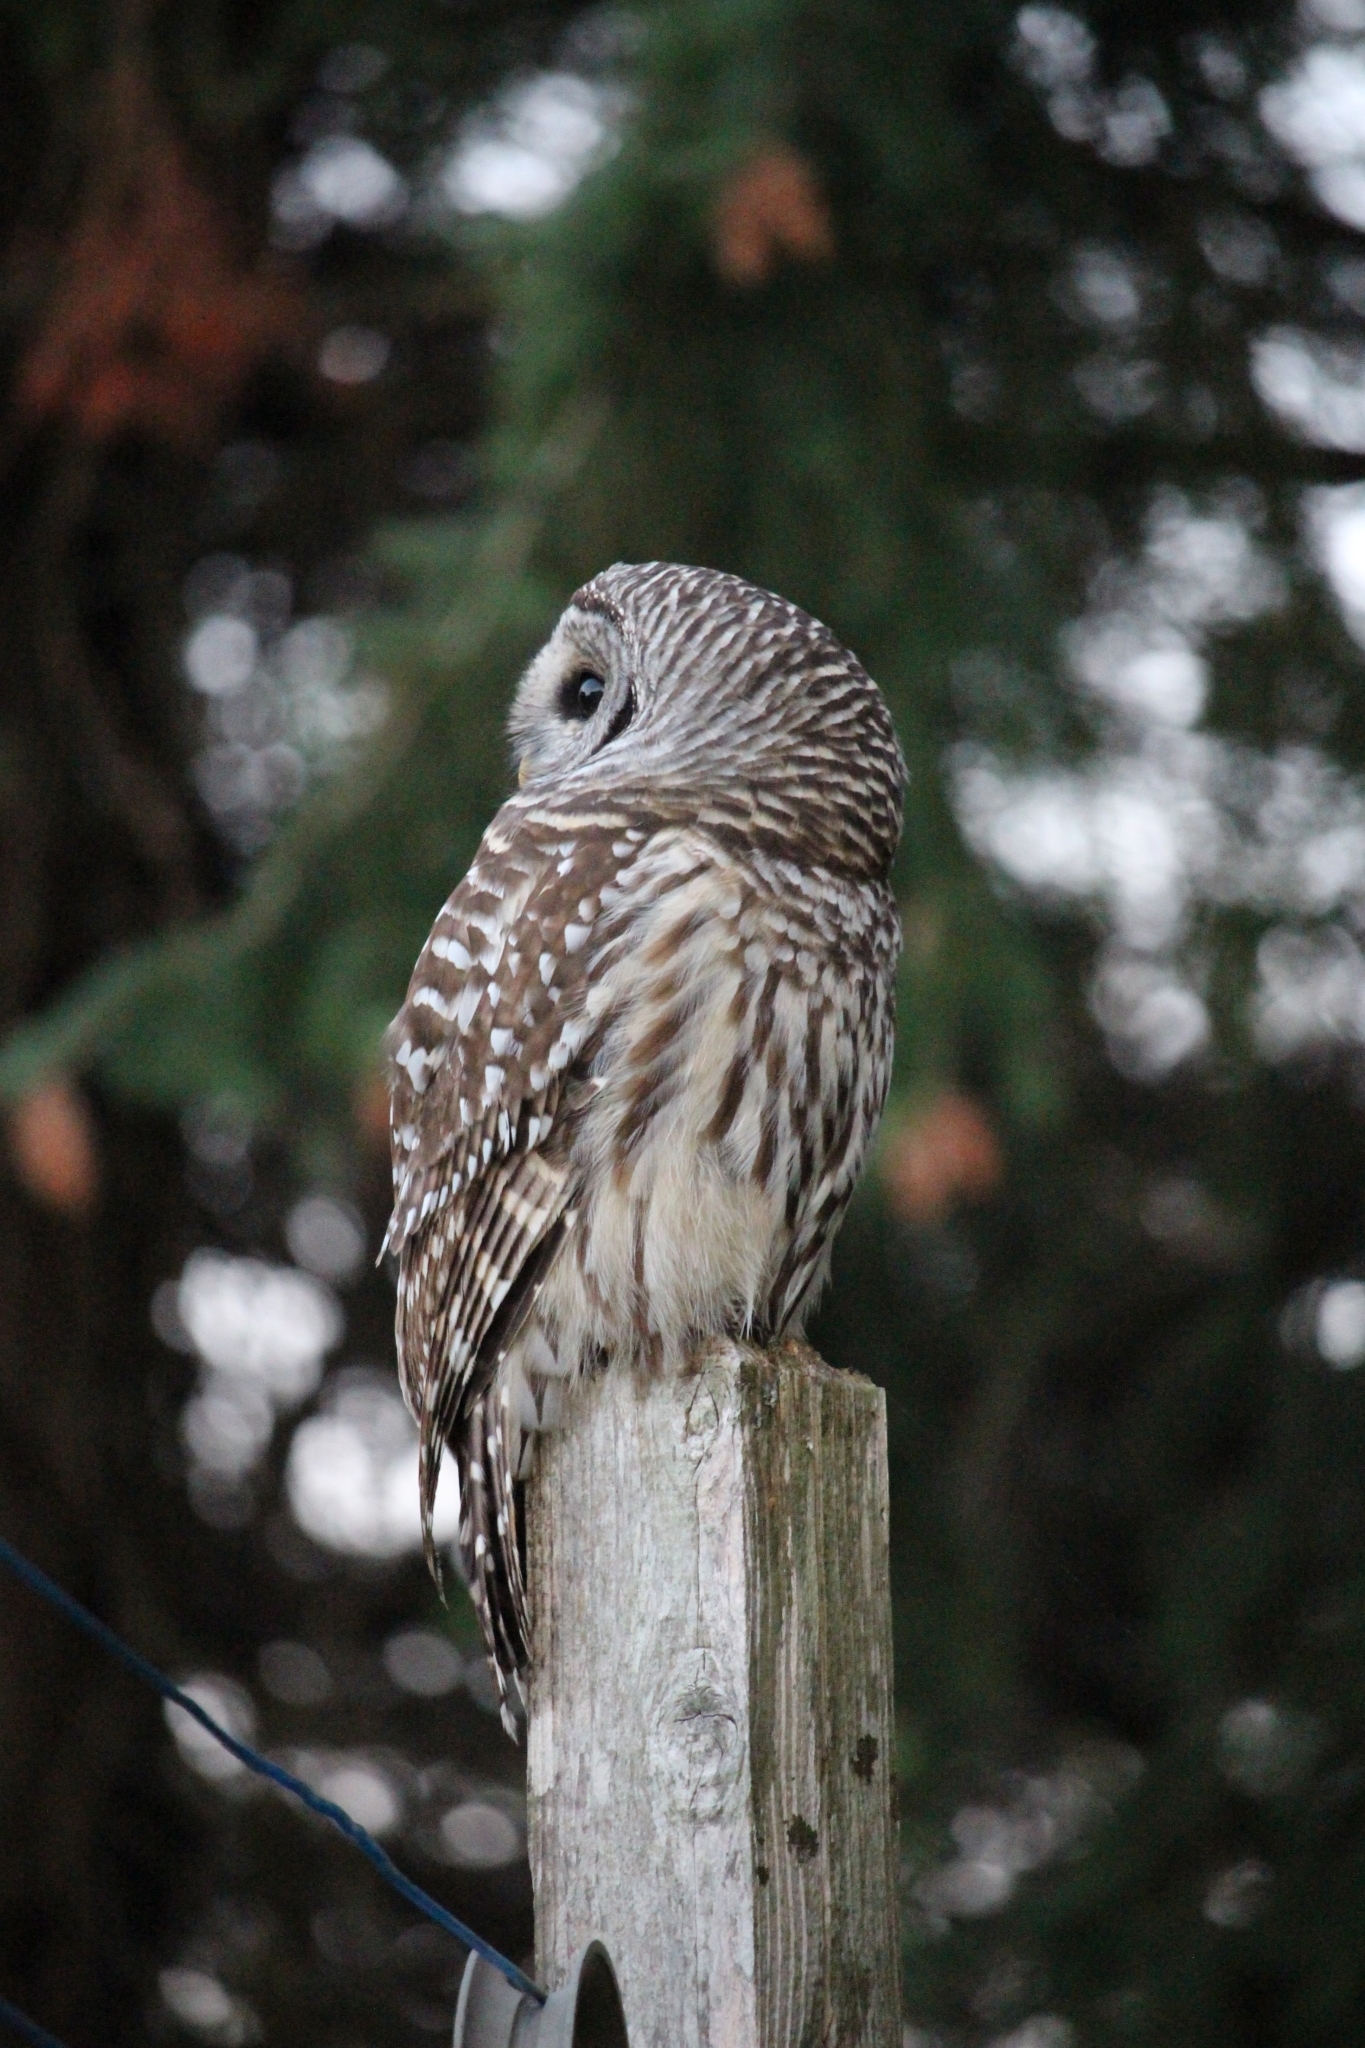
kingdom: Animalia
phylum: Chordata
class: Aves
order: Strigiformes
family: Strigidae
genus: Strix
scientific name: Strix varia
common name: Barred owl
